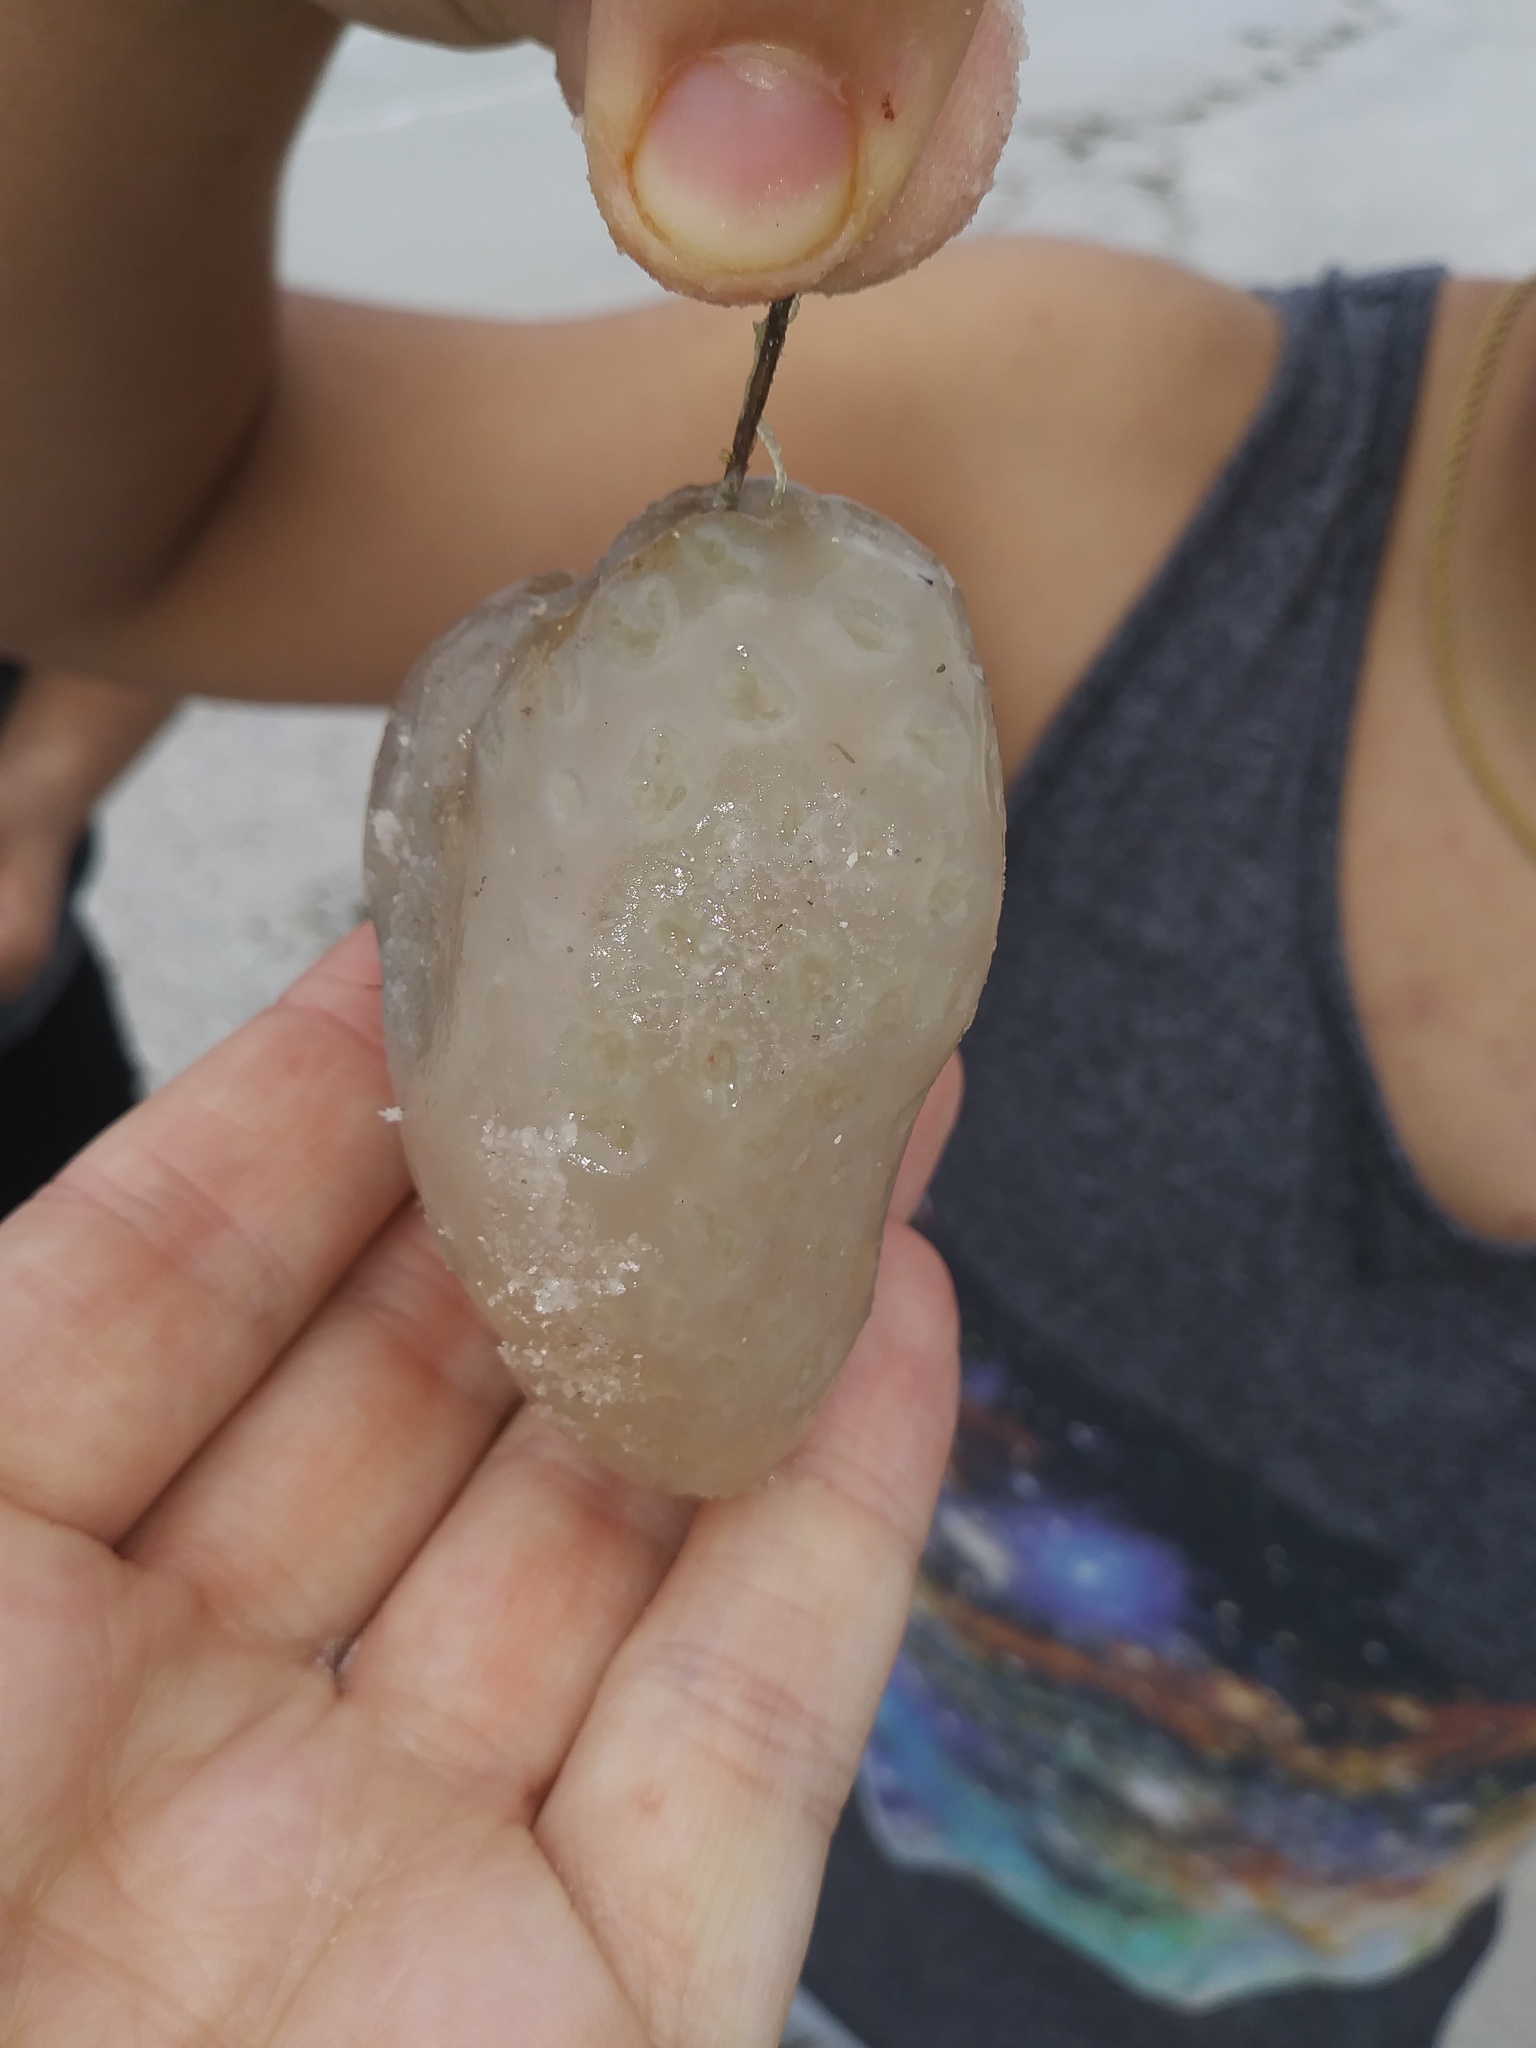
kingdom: Animalia
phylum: Chordata
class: Ascidiacea
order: Aplousobranchia
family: Polyclinidae
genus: Aplidium
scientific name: Aplidium stellatum
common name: Atlantic sea pork
